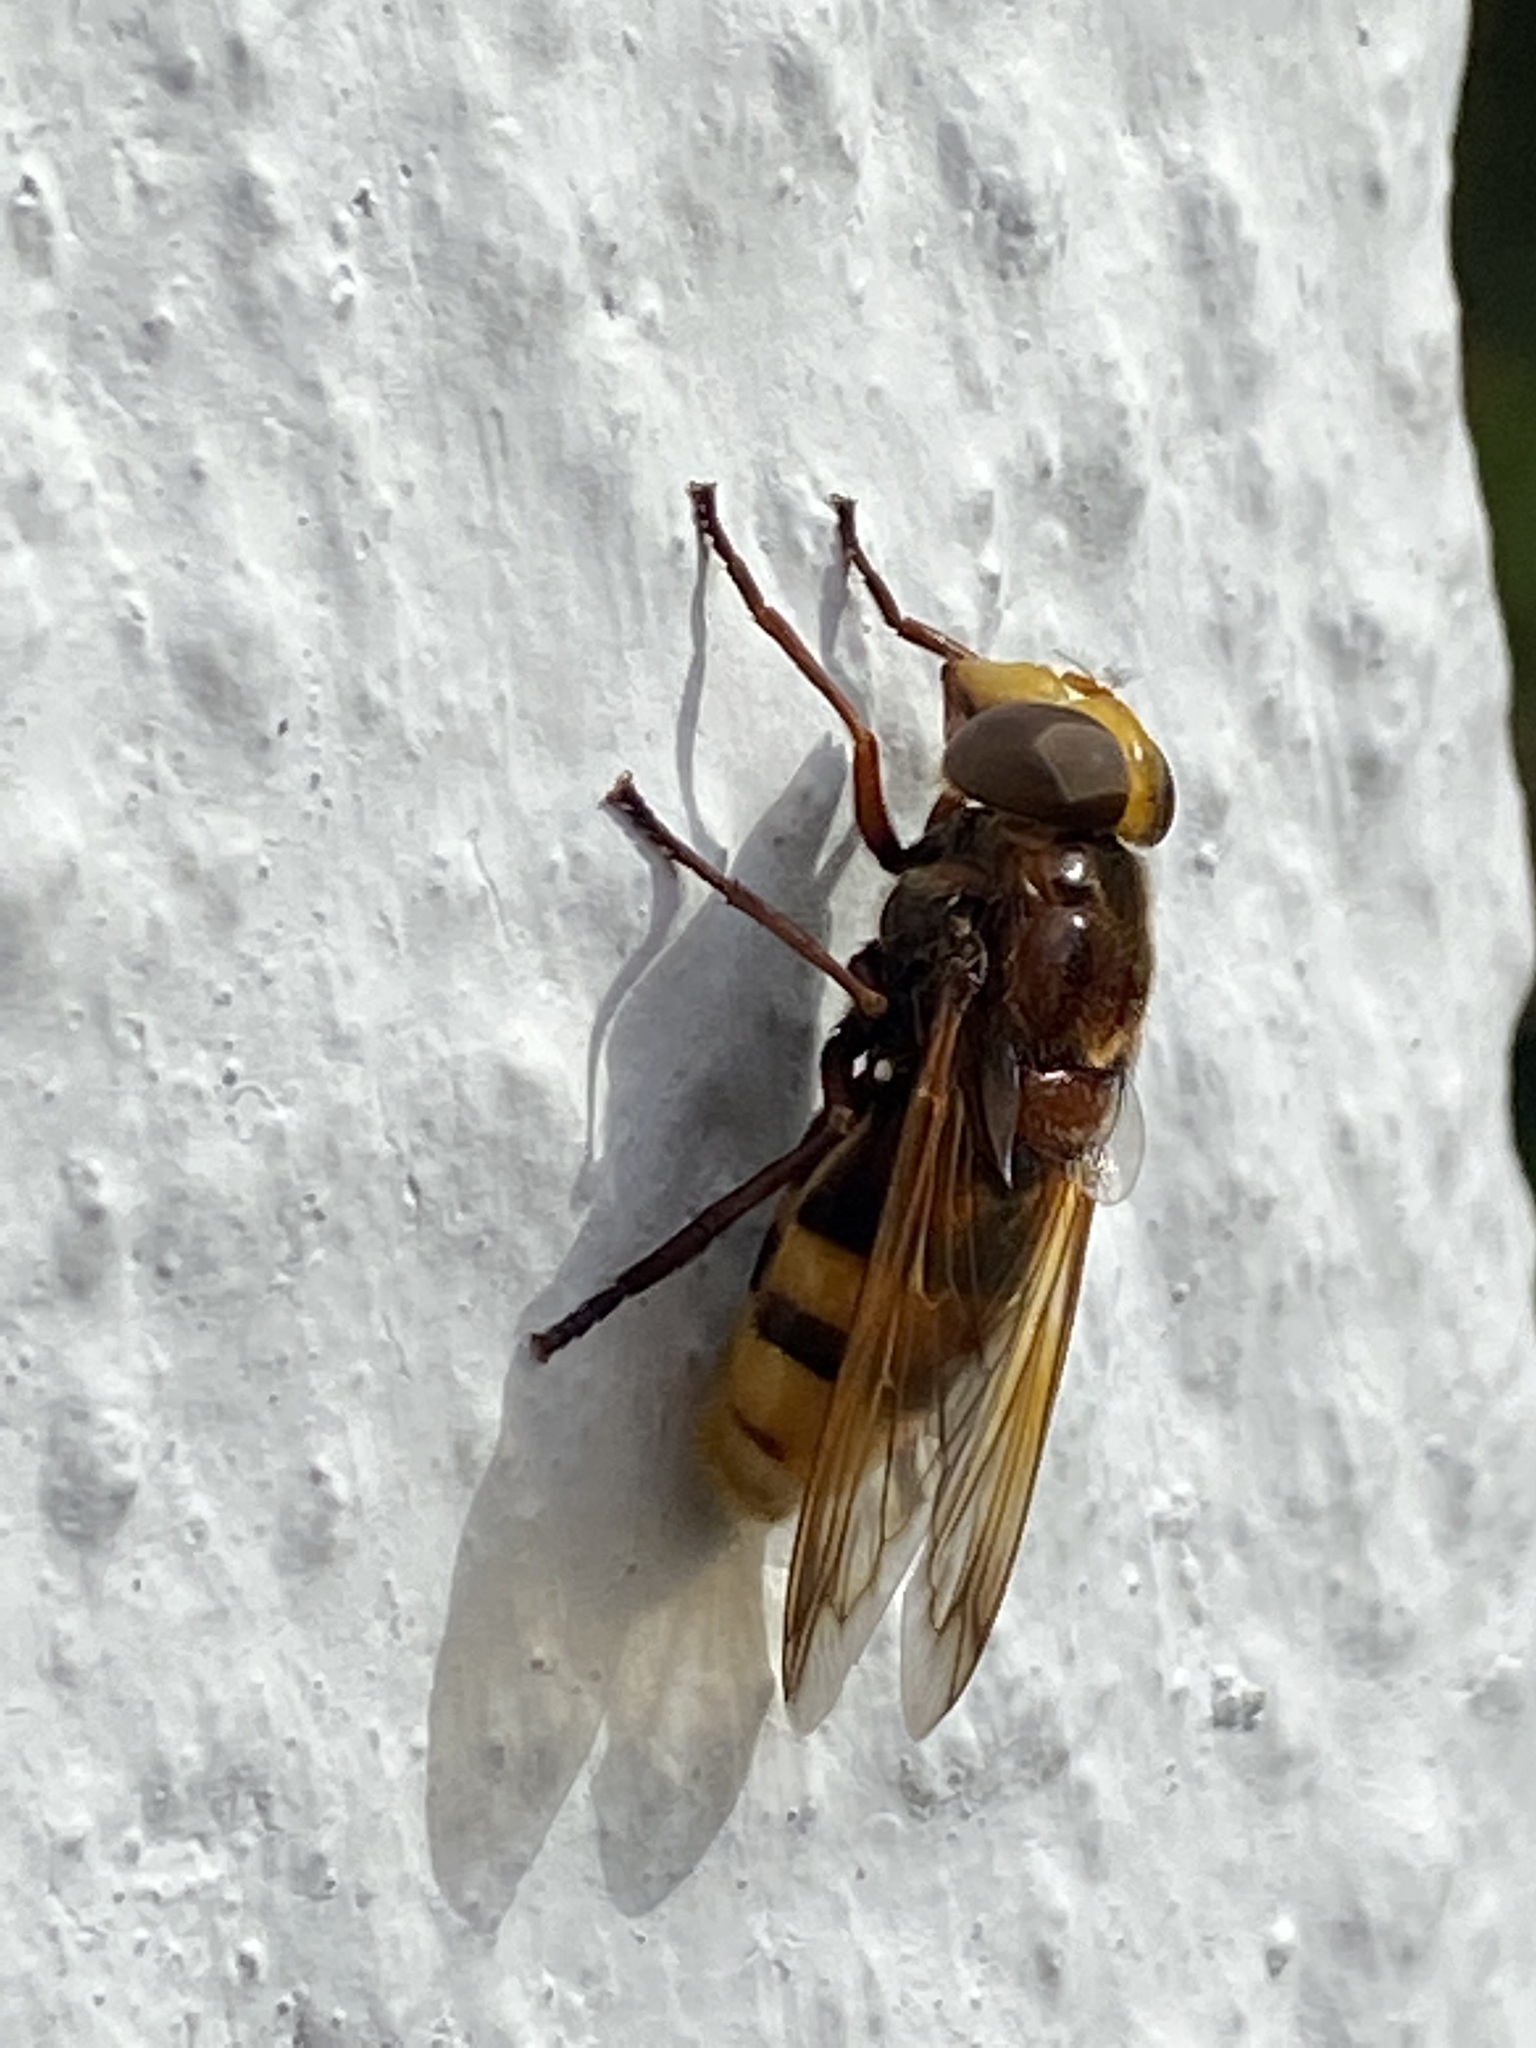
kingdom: Animalia
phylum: Arthropoda
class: Insecta
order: Diptera
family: Syrphidae
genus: Volucella
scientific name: Volucella zonaria
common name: Hornet hoverfly
